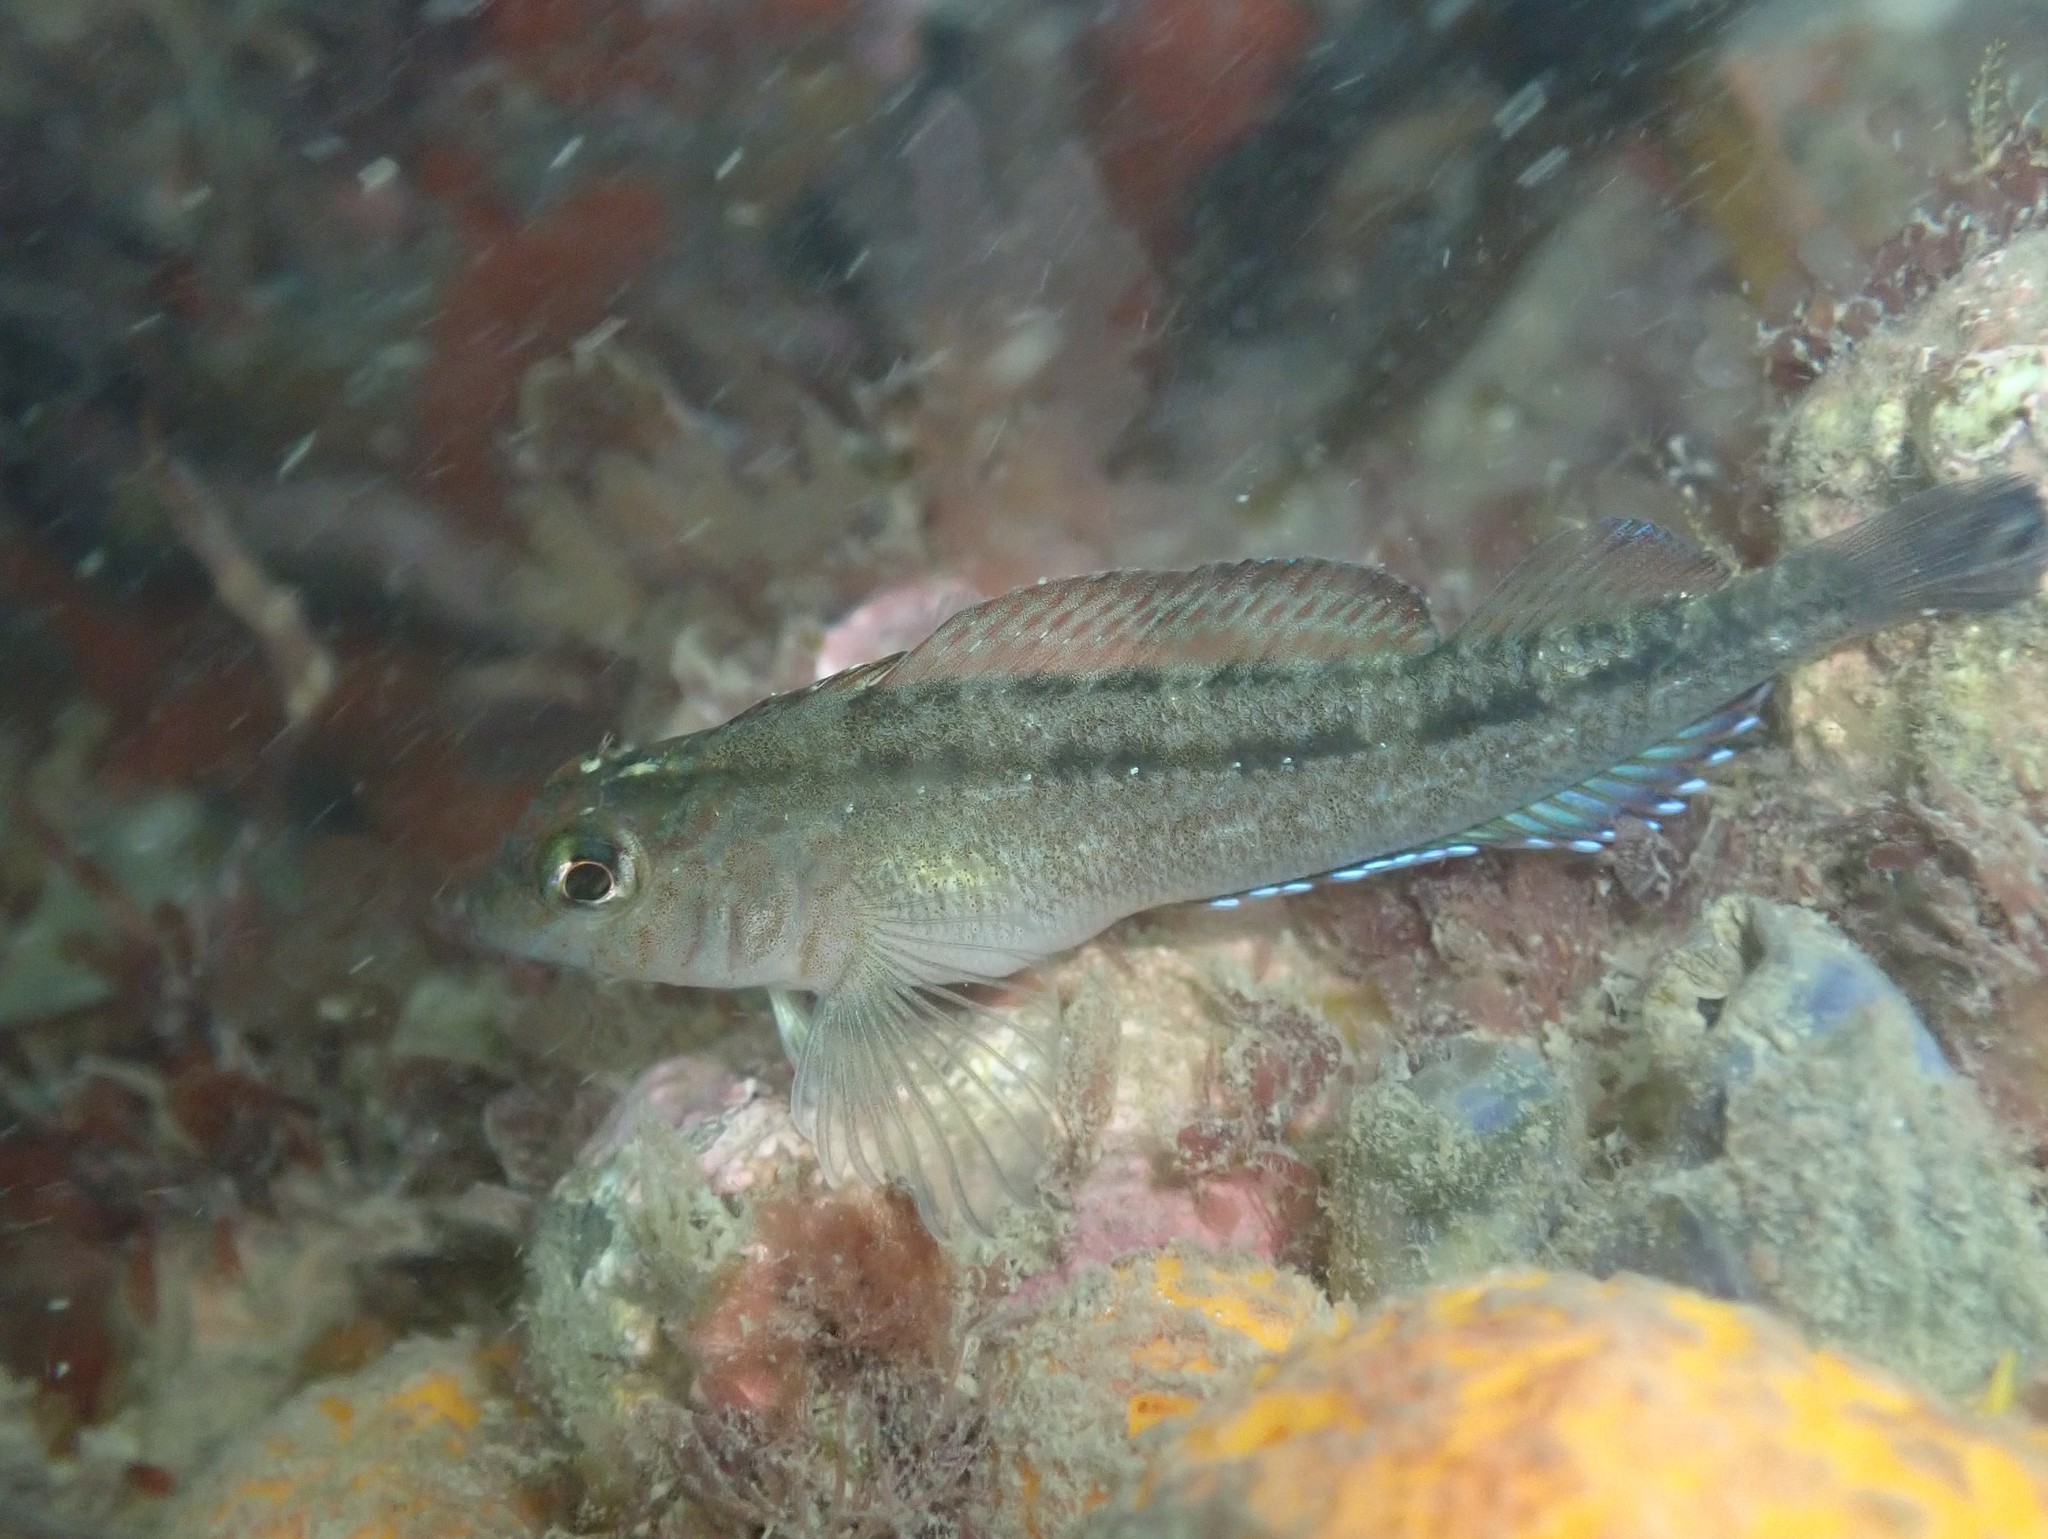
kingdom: Animalia
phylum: Chordata
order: Perciformes
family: Tripterygiidae
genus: Forsterygion
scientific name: Forsterygion lapillum
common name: Common triplefin
